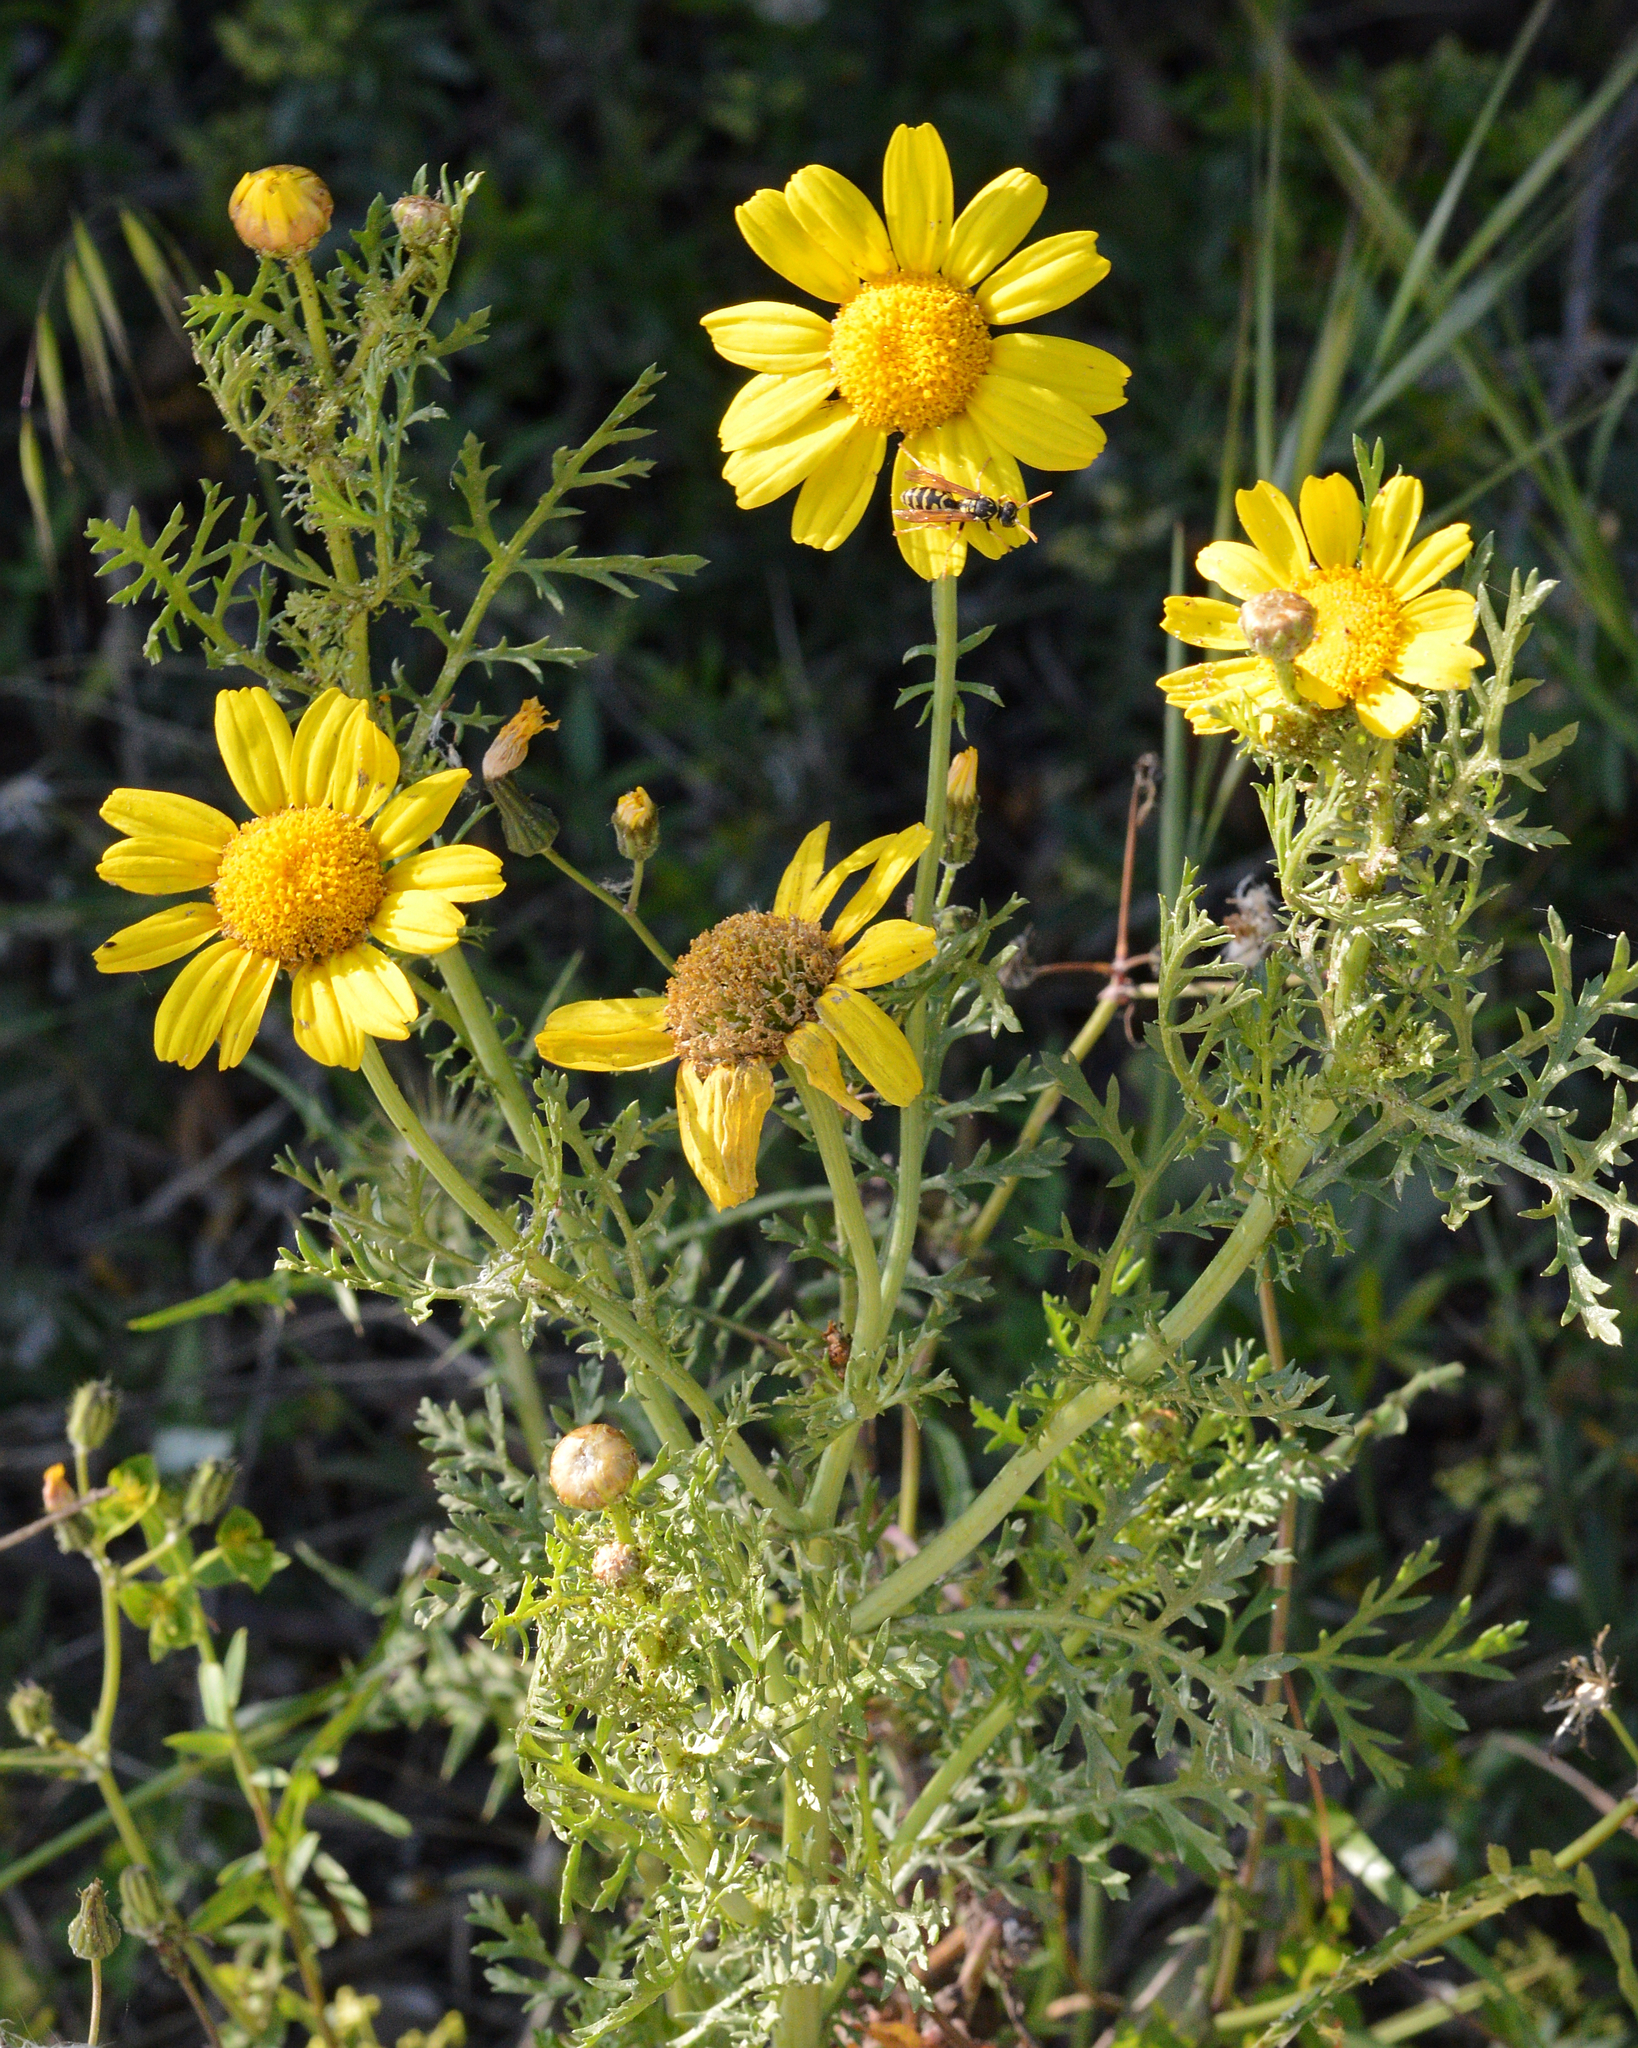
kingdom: Plantae
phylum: Tracheophyta
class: Magnoliopsida
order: Asterales
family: Asteraceae
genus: Glebionis
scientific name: Glebionis coronaria
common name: Crowndaisy
